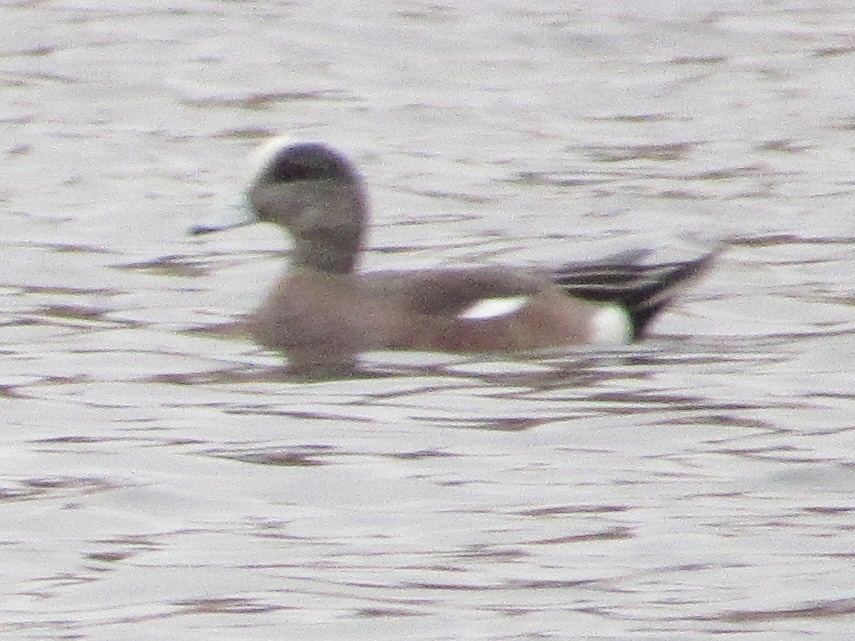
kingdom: Animalia
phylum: Chordata
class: Aves
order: Anseriformes
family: Anatidae
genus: Mareca
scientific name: Mareca americana
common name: American wigeon
